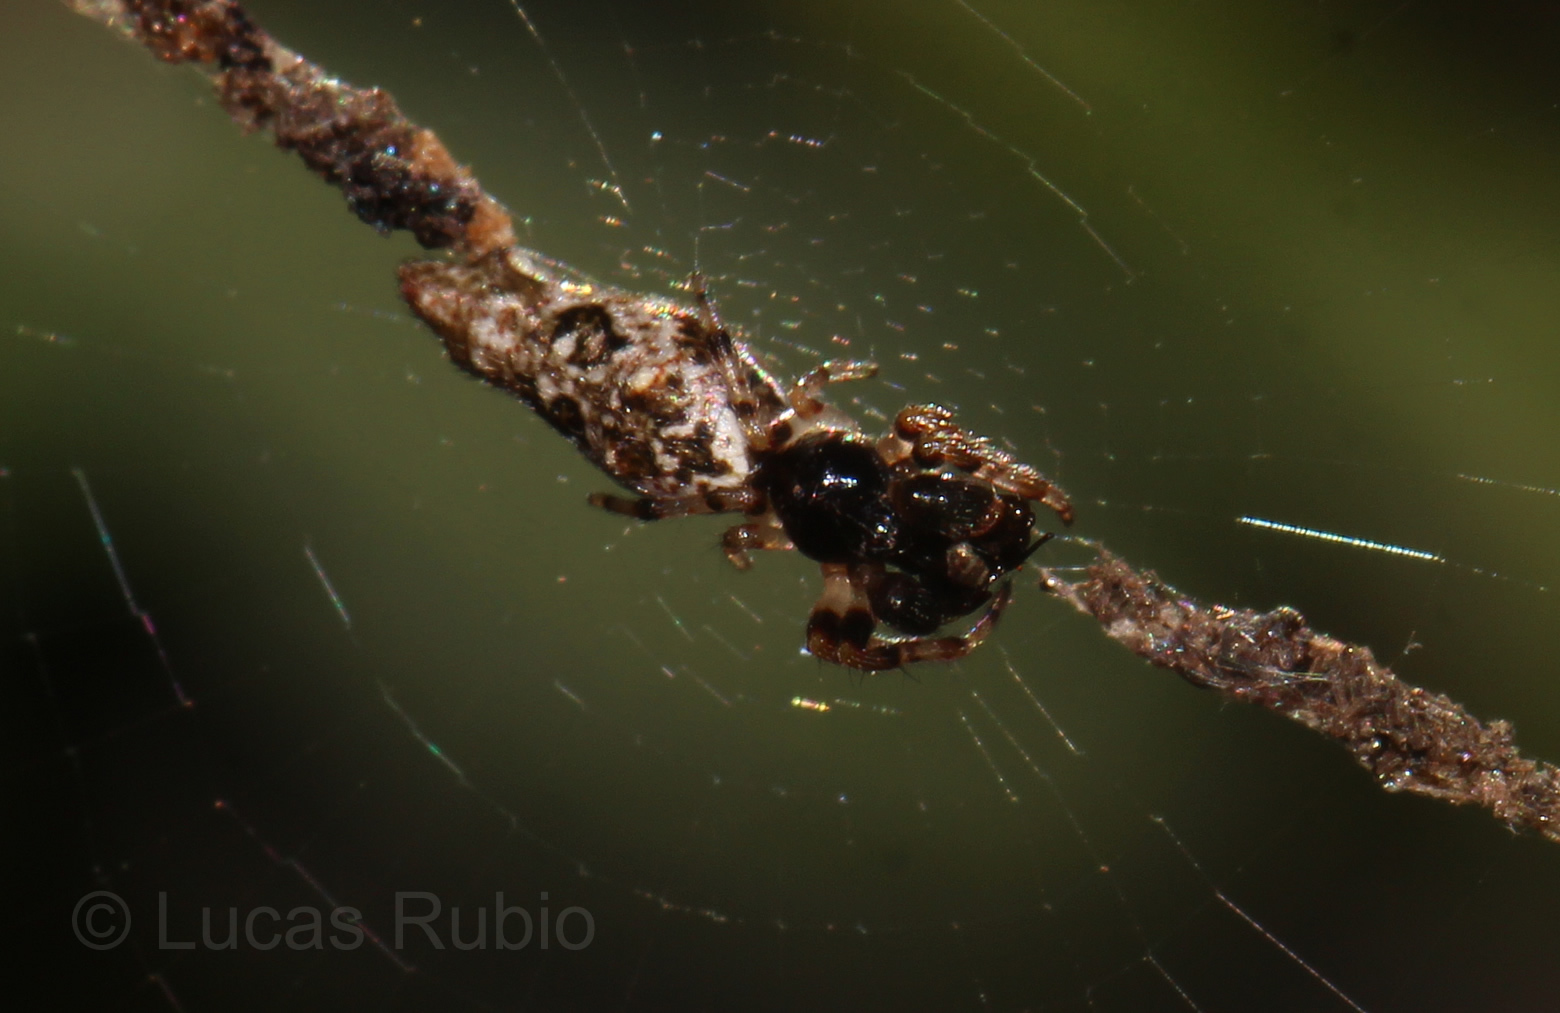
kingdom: Animalia
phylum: Arthropoda
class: Arachnida
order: Araneae
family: Araneidae
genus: Cyclosa
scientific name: Cyclosa serena
